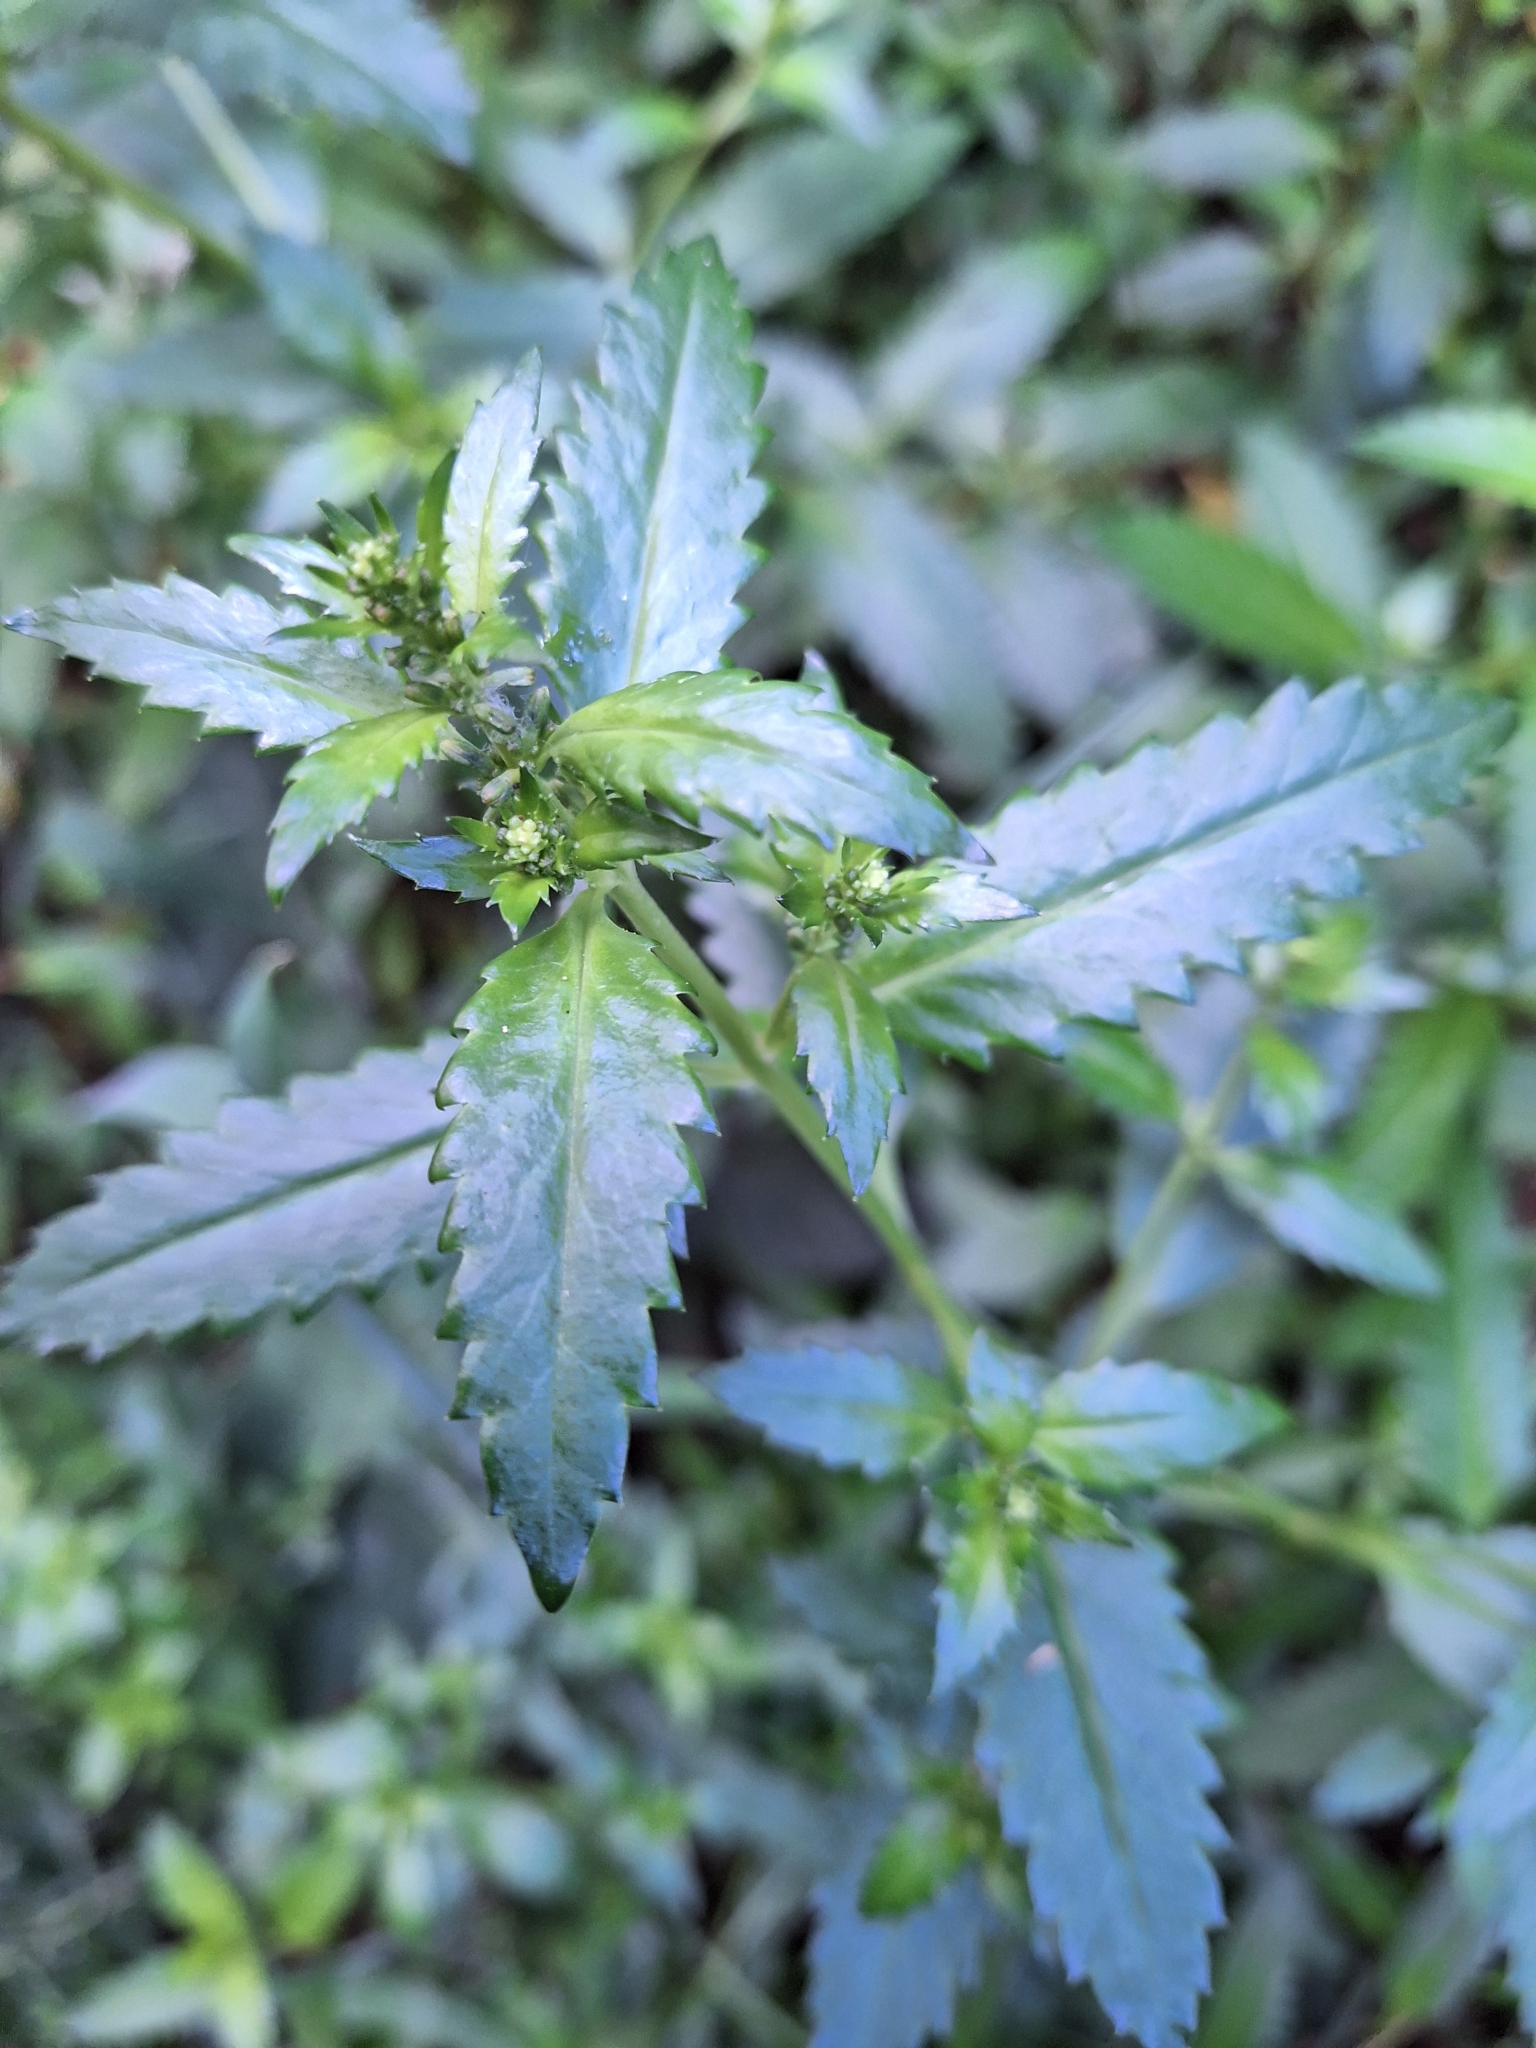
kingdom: Plantae
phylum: Tracheophyta
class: Magnoliopsida
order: Saxifragales
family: Haloragaceae
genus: Haloragis
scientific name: Haloragis erecta
